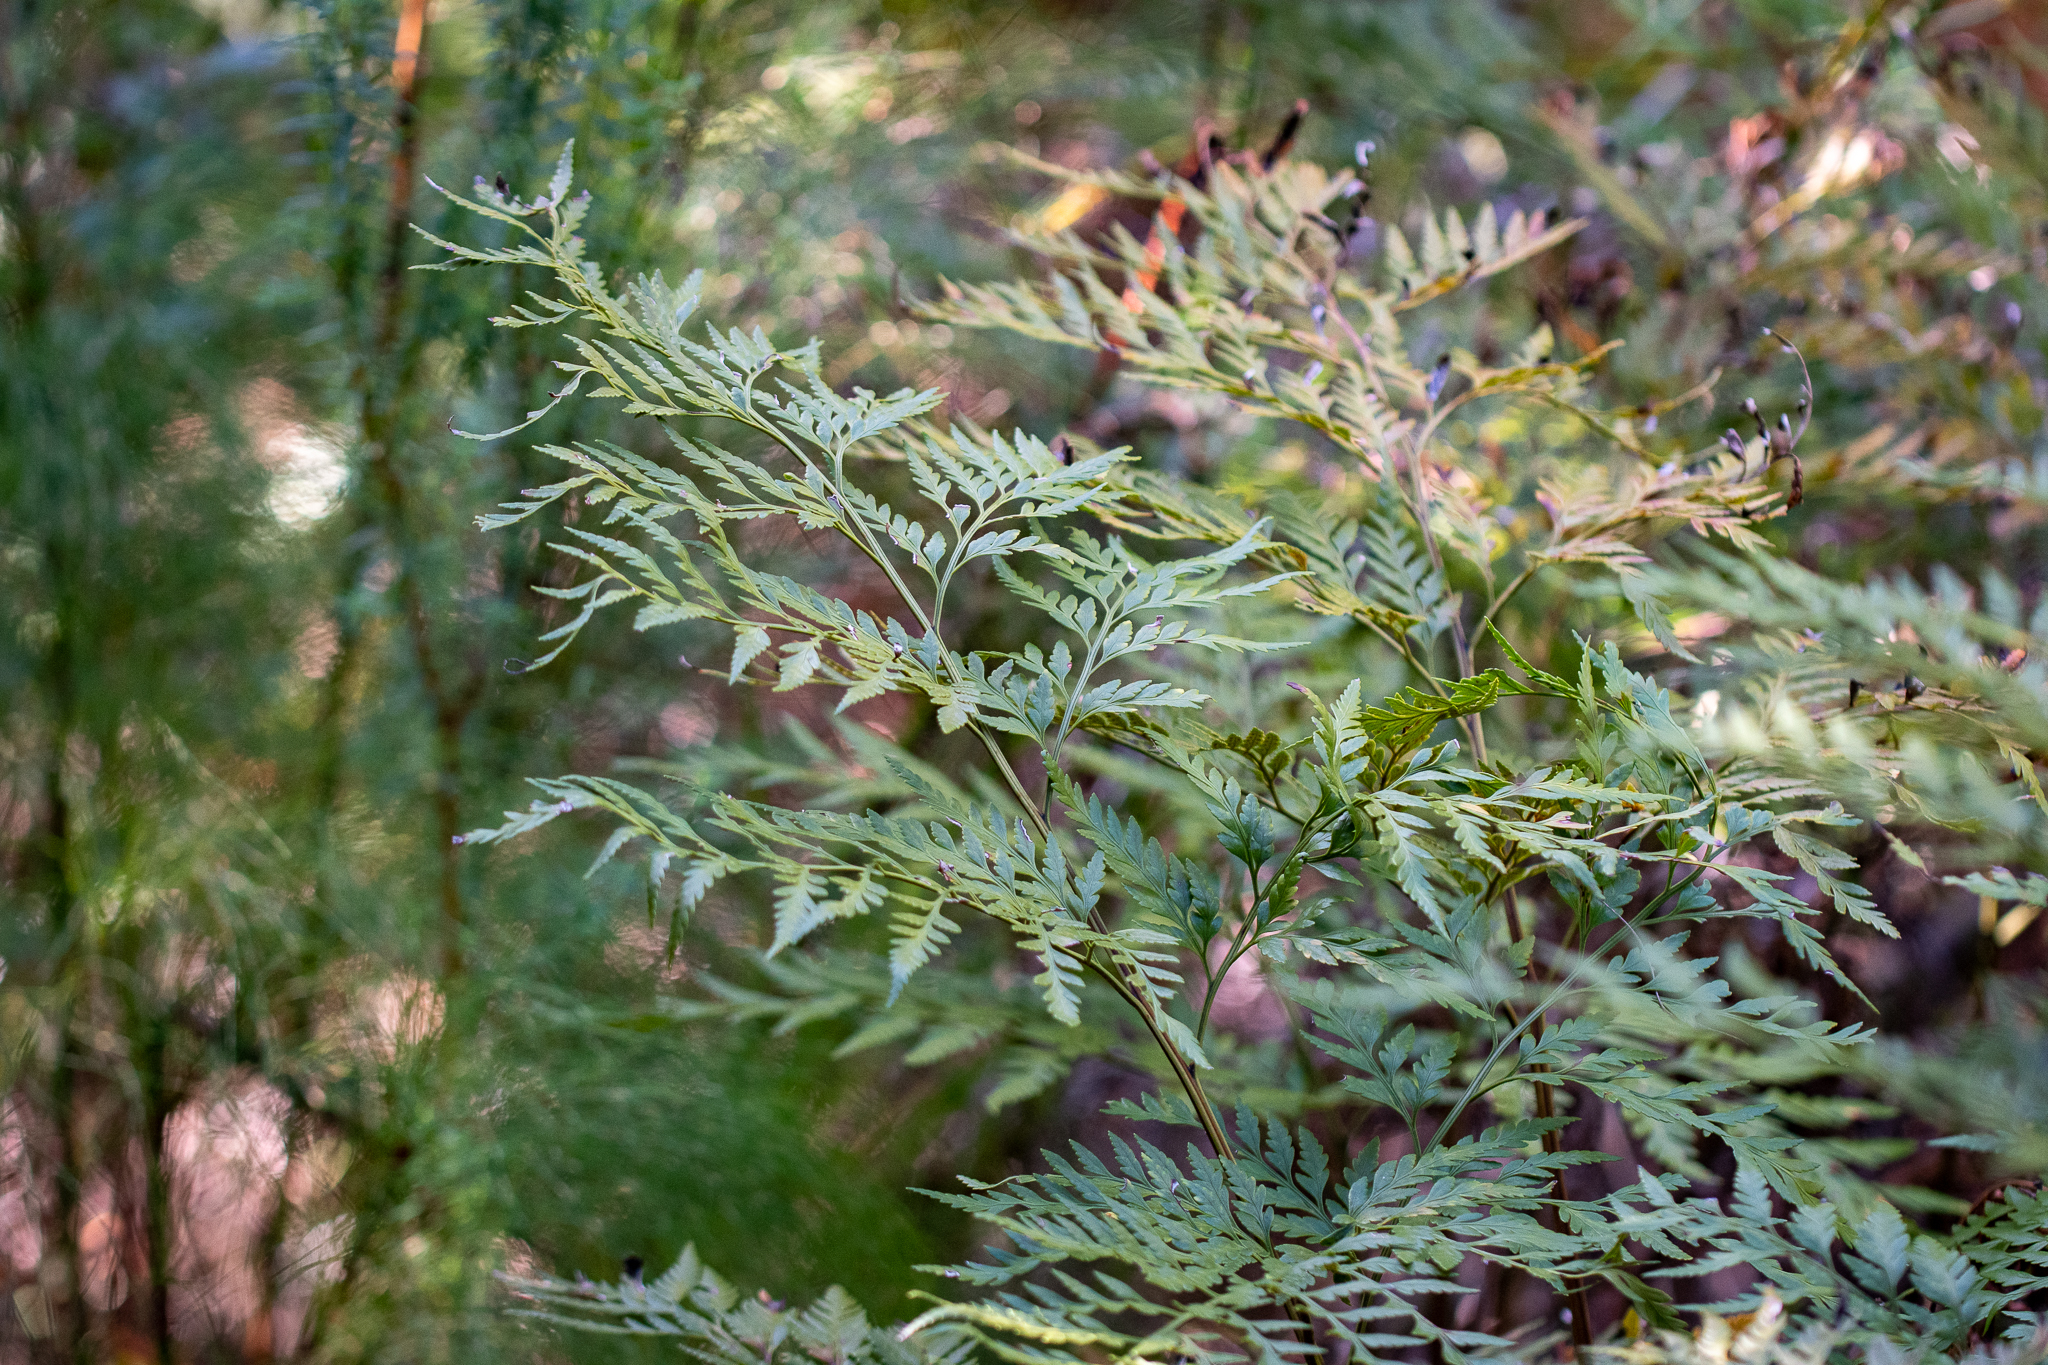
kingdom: Plantae
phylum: Tracheophyta
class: Polypodiopsida
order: Polypodiales
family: Dryopteridaceae
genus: Rumohra
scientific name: Rumohra adiantiformis
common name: Leather fern
